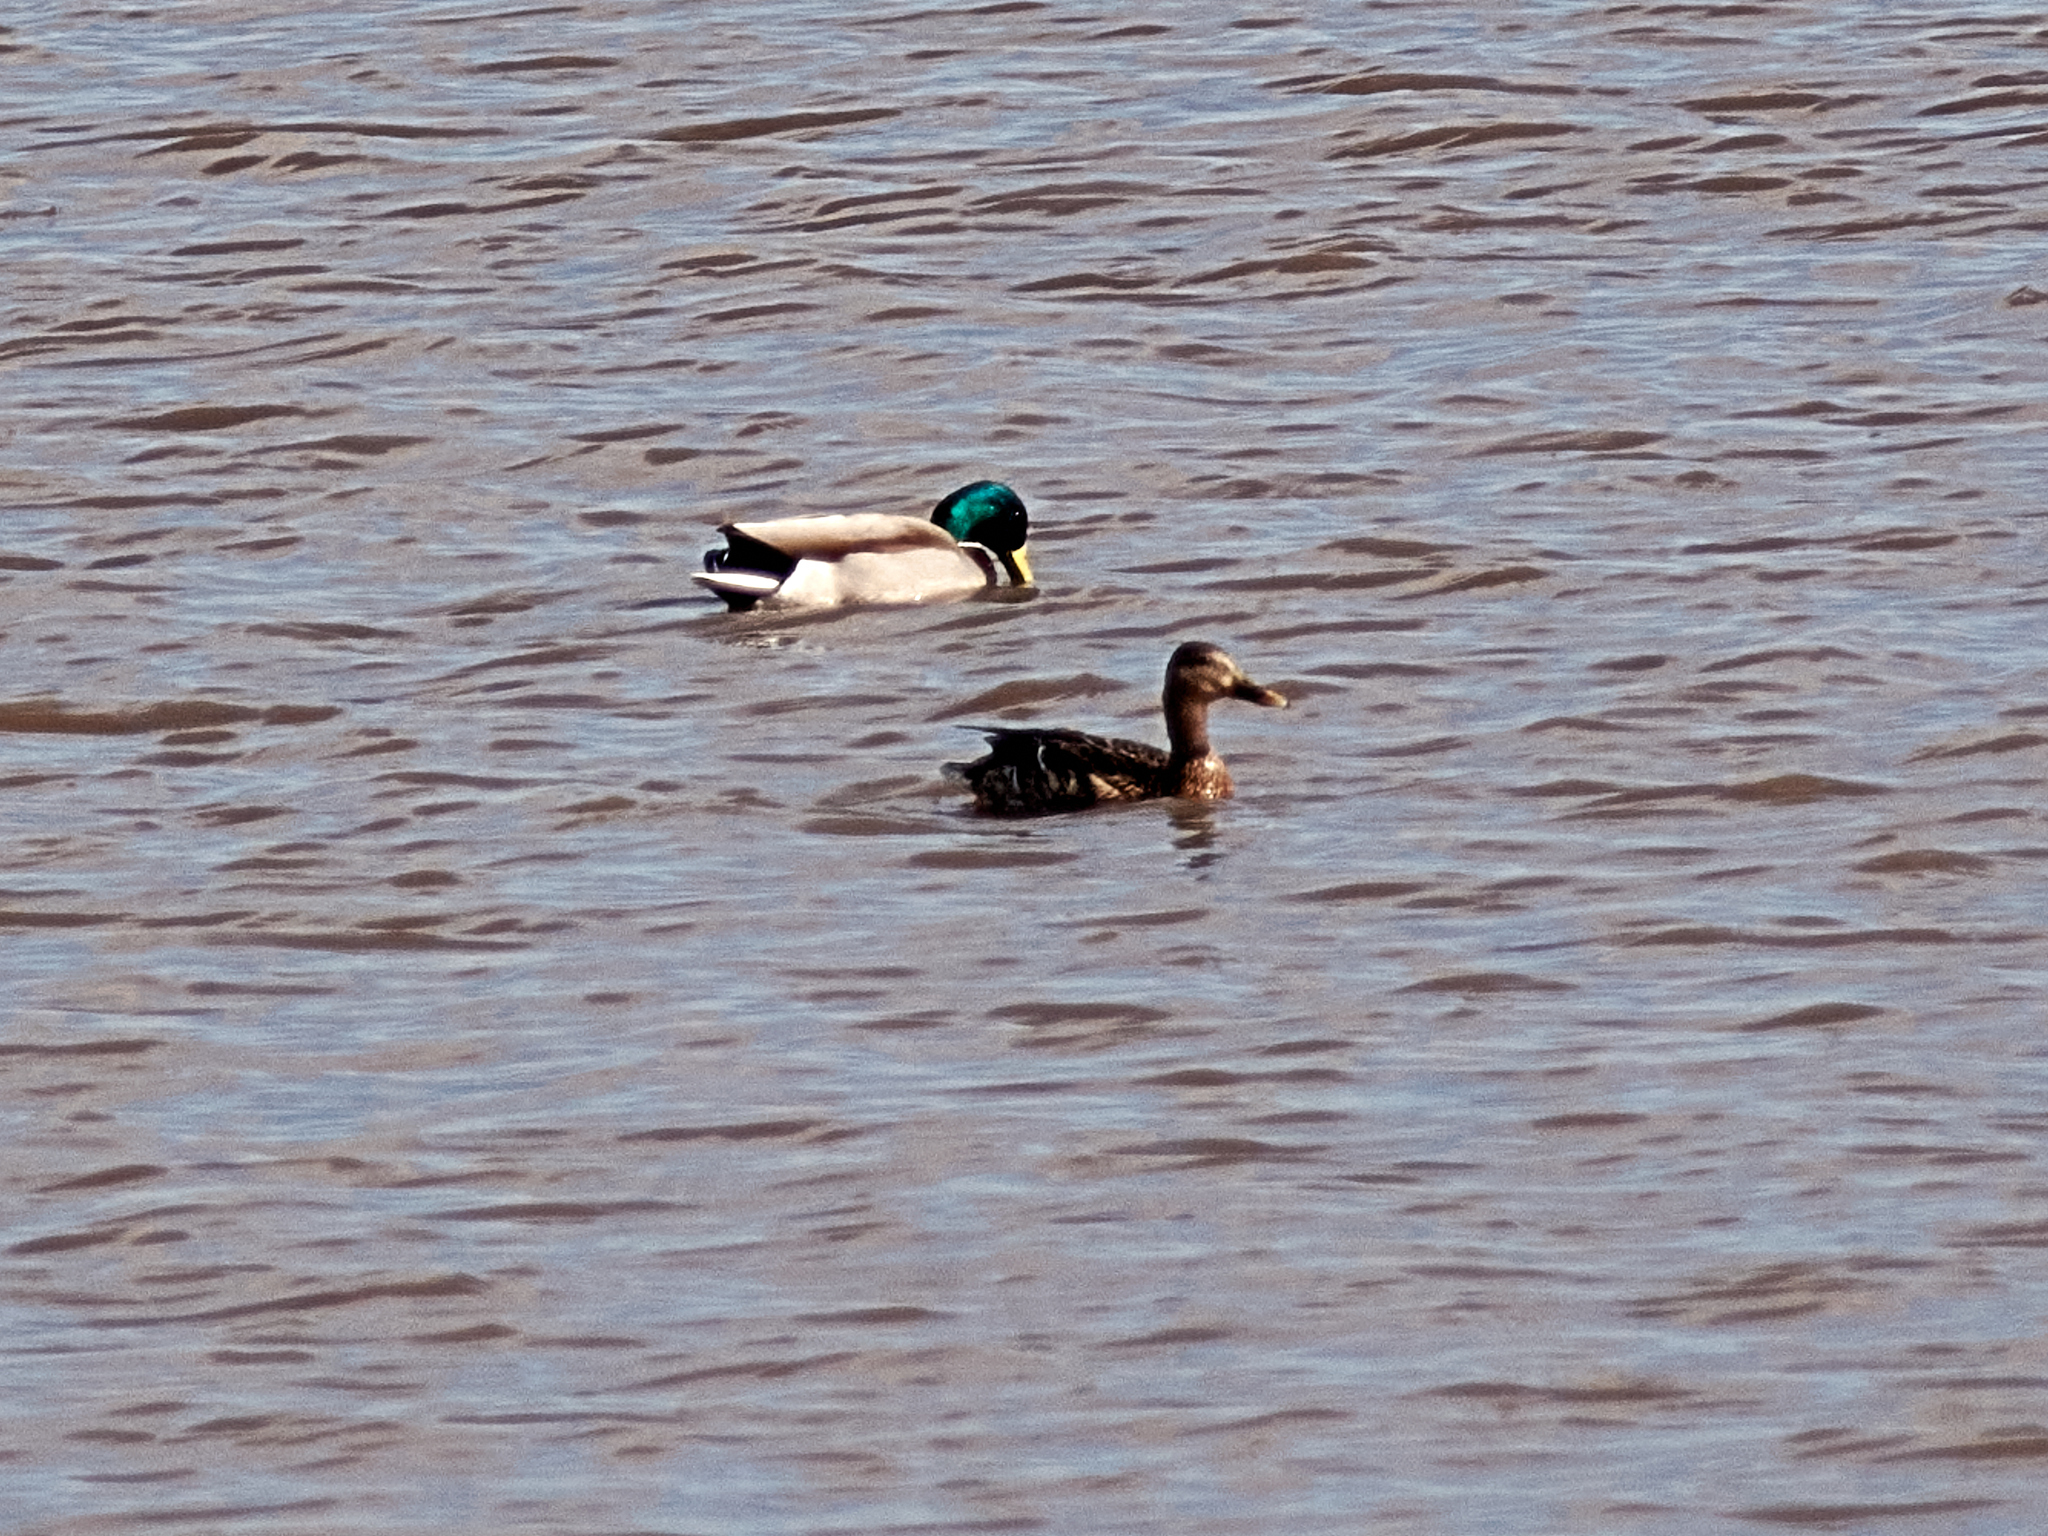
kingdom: Animalia
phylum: Chordata
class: Aves
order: Anseriformes
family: Anatidae
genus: Anas
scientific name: Anas platyrhynchos
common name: Mallard
